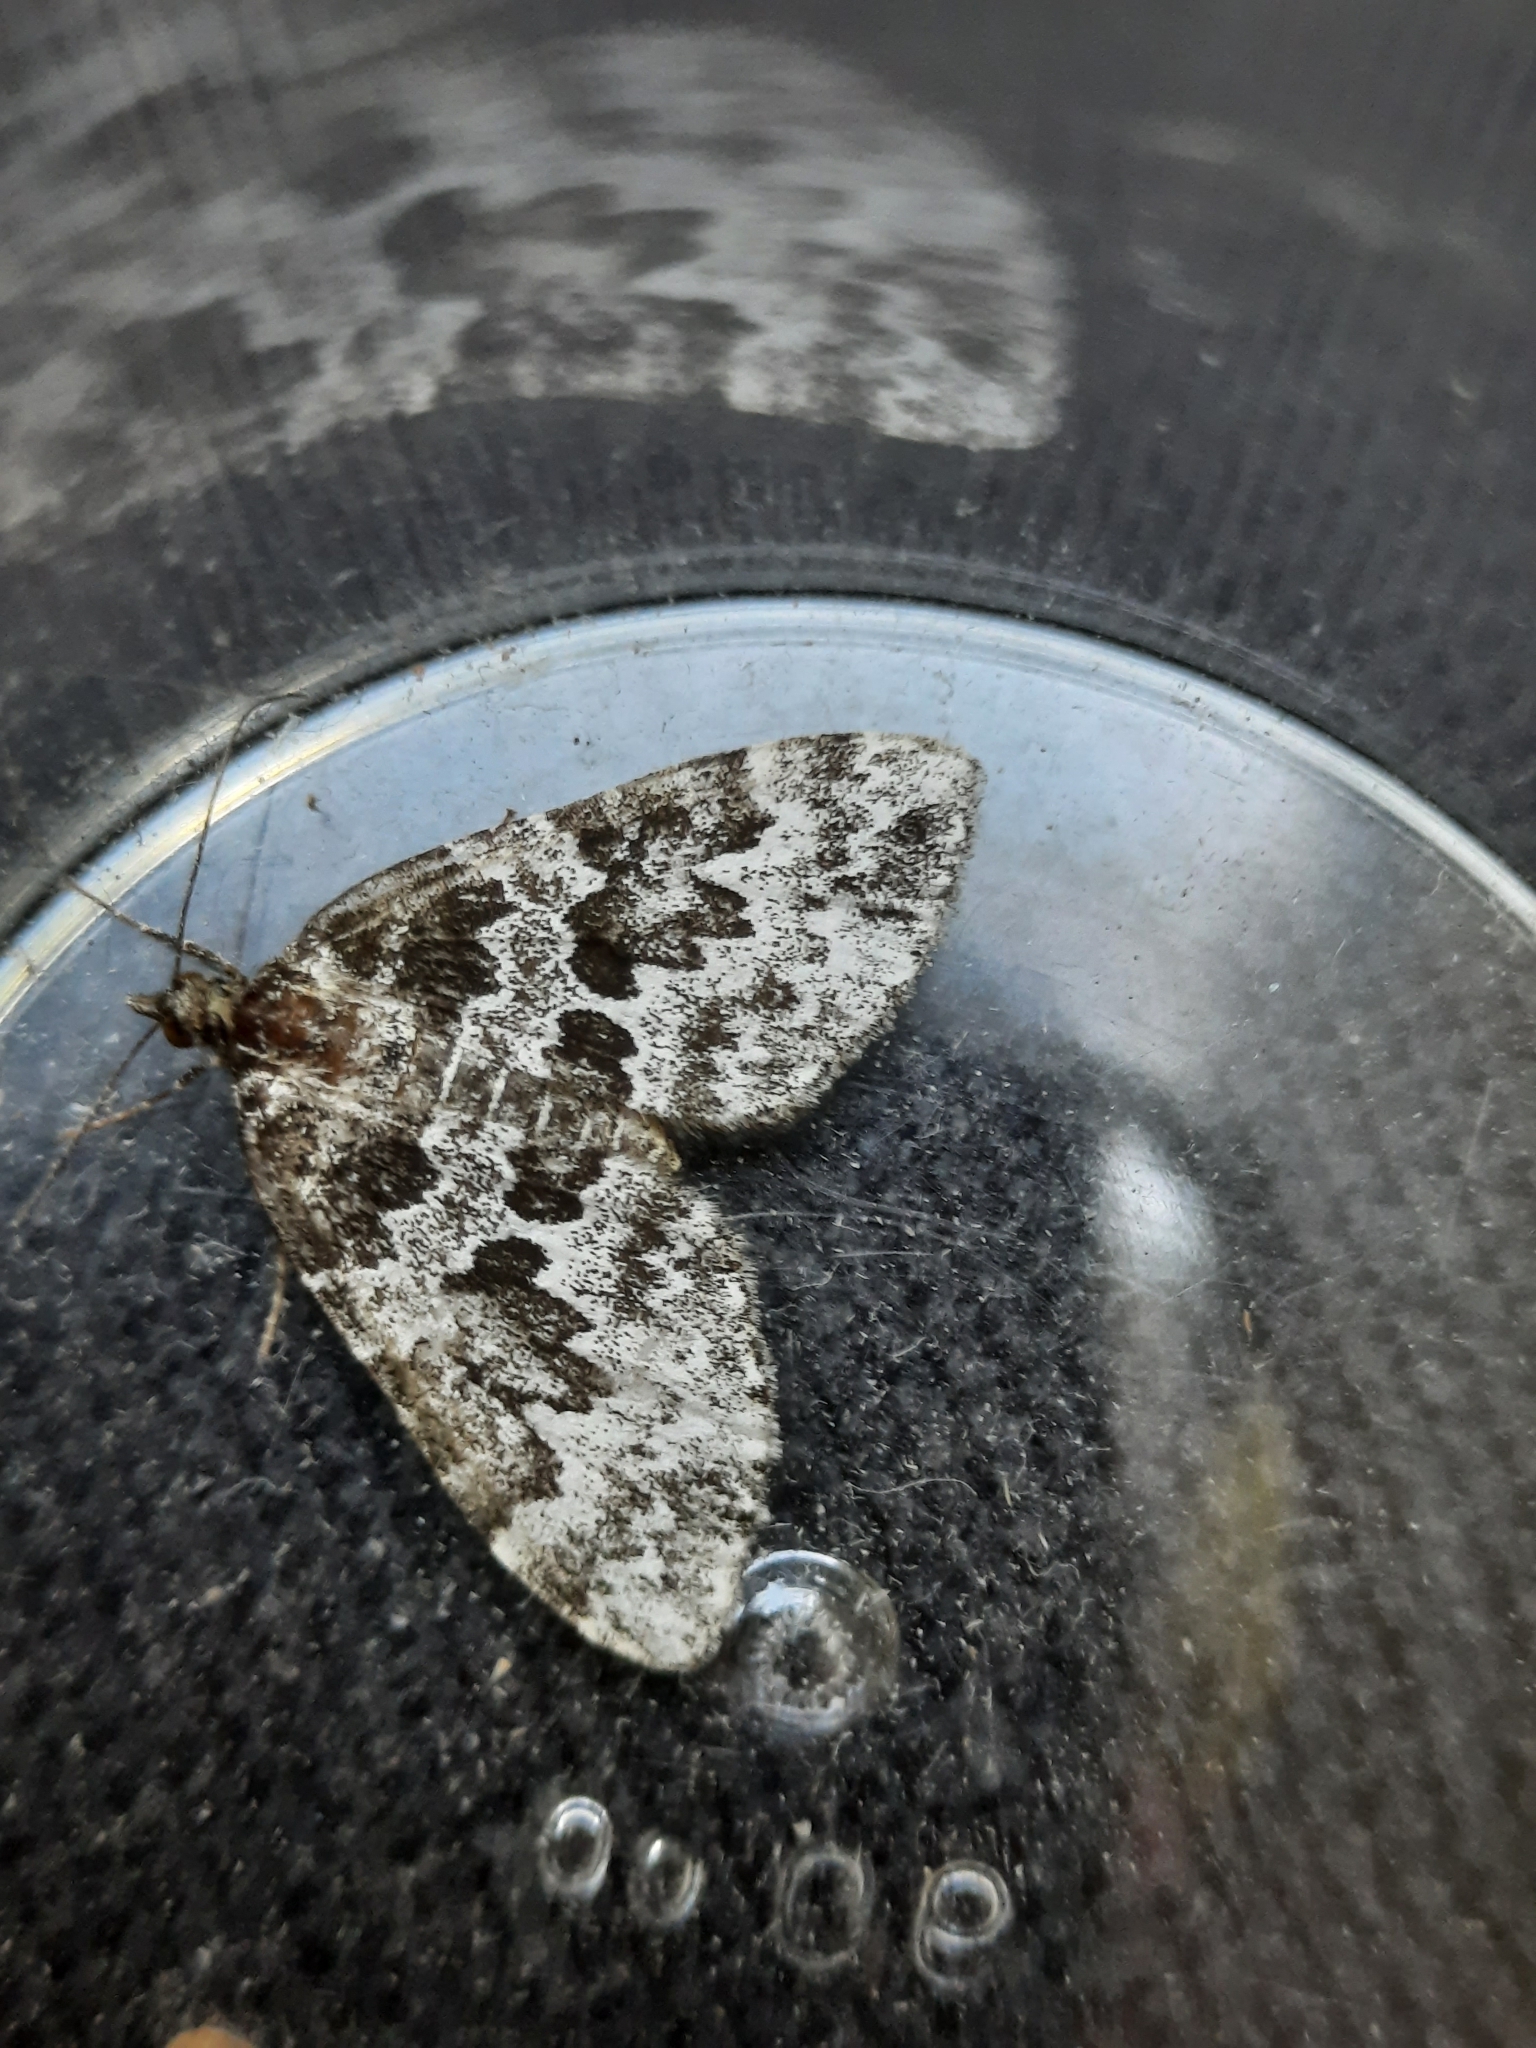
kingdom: Animalia
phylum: Arthropoda
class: Insecta
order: Lepidoptera
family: Geometridae
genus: Electrophaes
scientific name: Electrophaes corylata
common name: Broken-barred carpet
